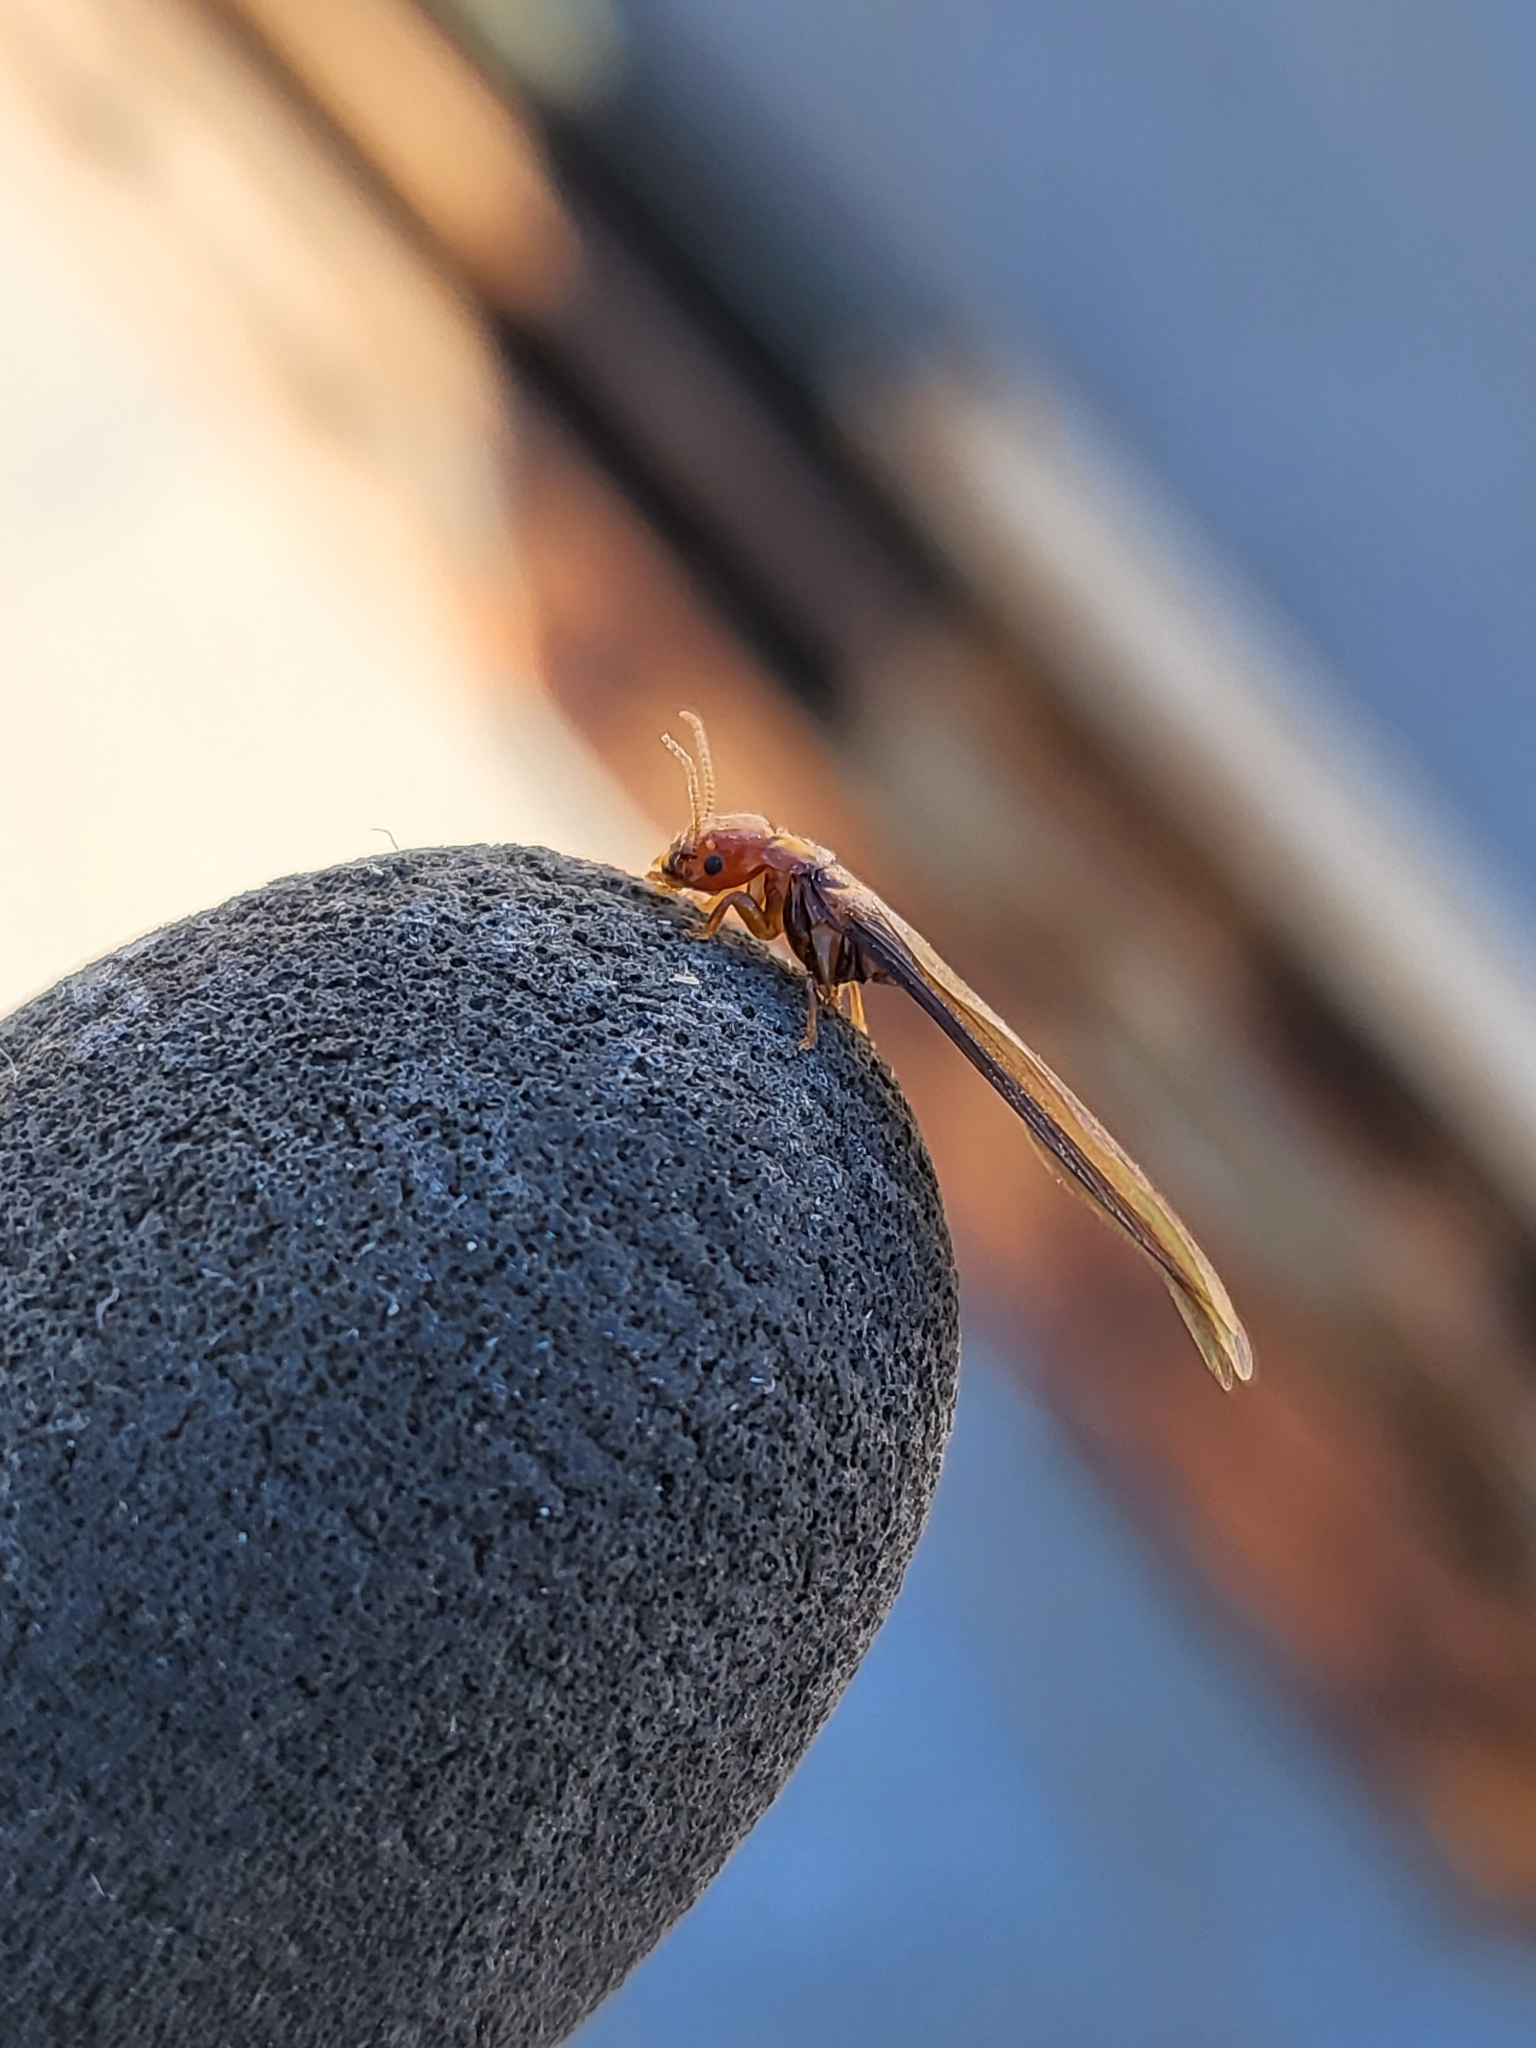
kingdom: Animalia
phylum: Arthropoda
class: Insecta
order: Blattodea
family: Kalotermitidae
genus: Incisitermes
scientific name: Incisitermes minor
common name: Termite
